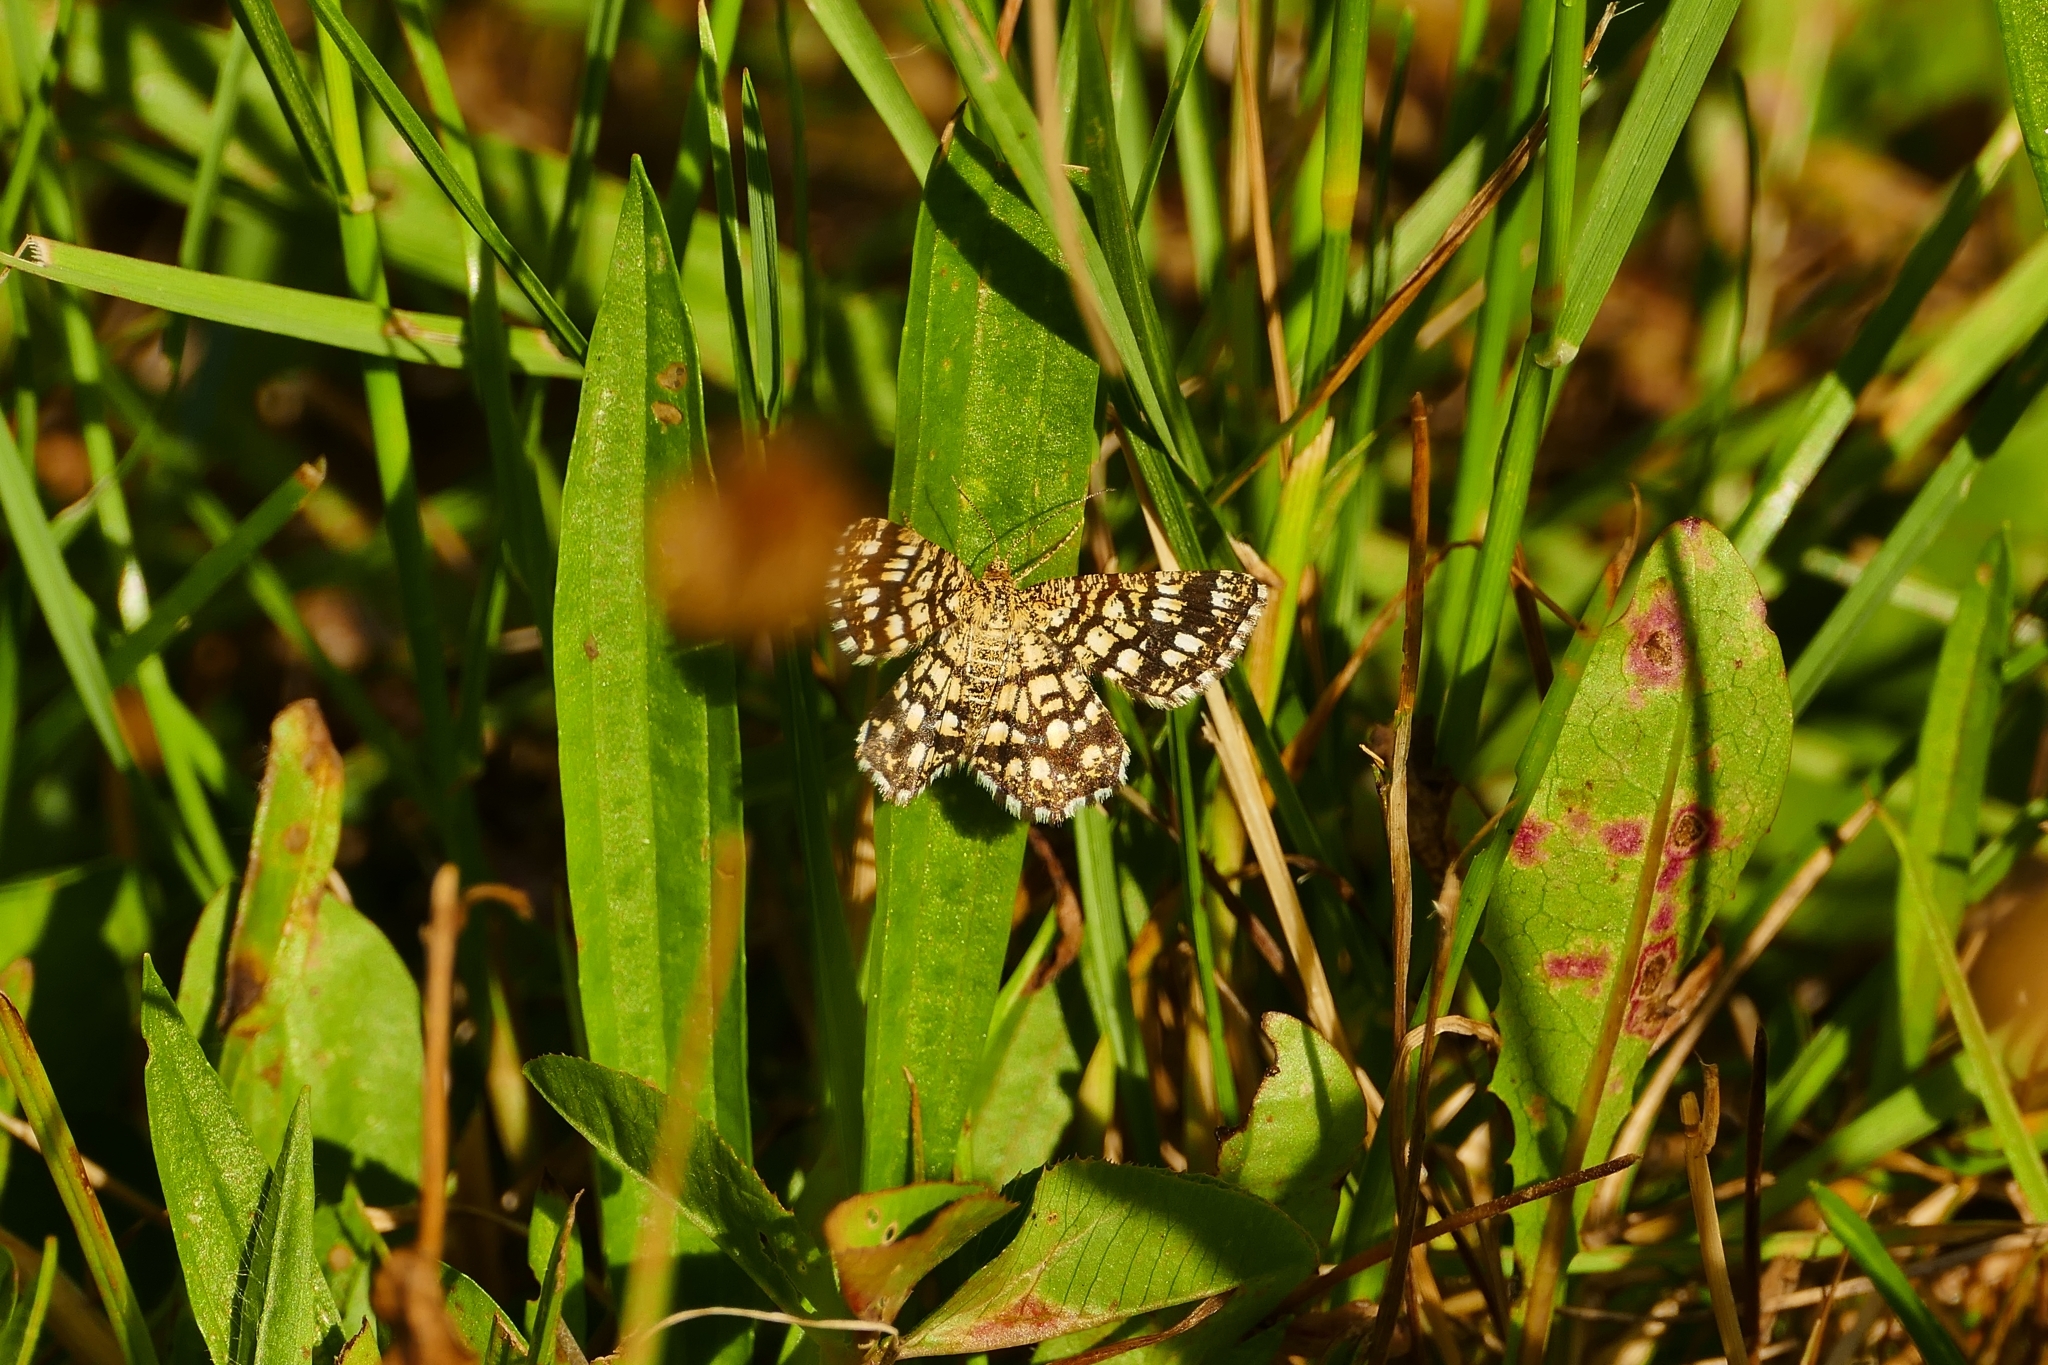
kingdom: Animalia
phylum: Arthropoda
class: Insecta
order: Lepidoptera
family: Geometridae
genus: Chiasmia
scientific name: Chiasmia clathrata
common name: Latticed heath
